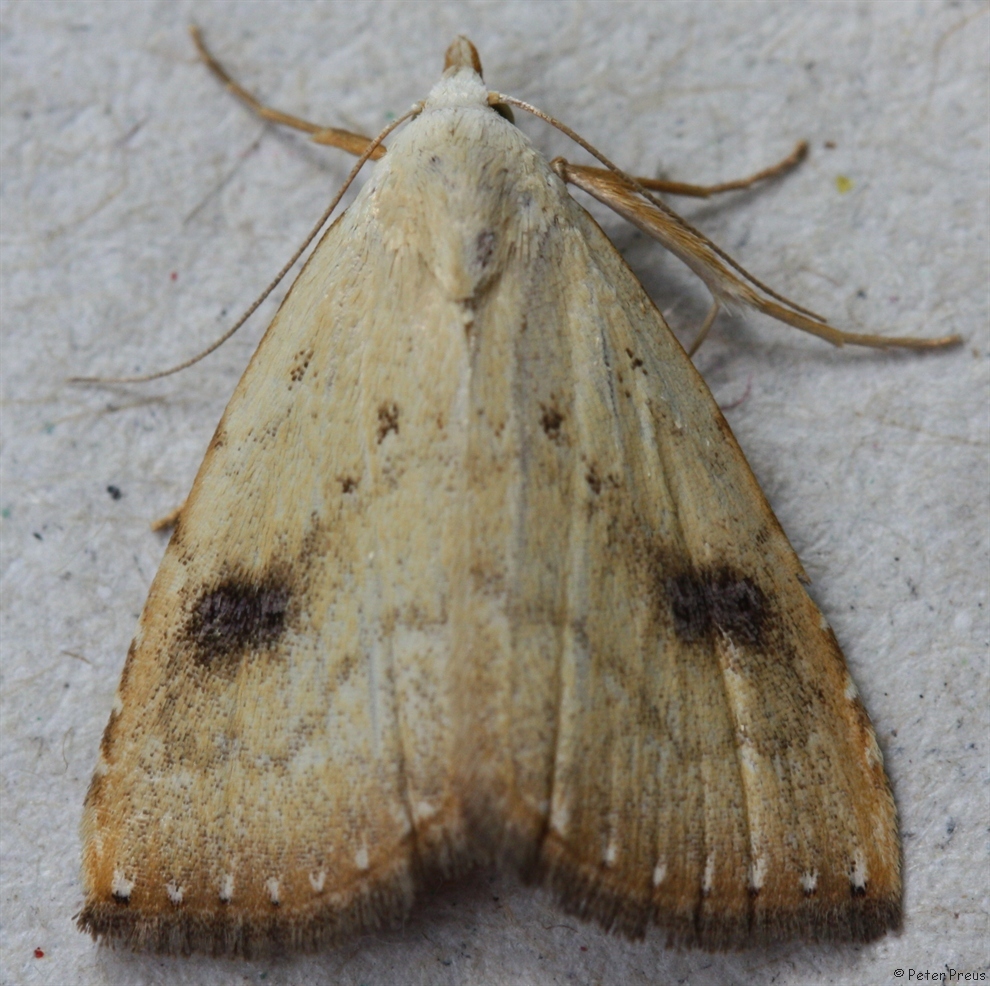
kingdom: Animalia
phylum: Arthropoda
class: Insecta
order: Lepidoptera
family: Erebidae
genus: Rivula
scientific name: Rivula sericealis
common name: Straw dot
